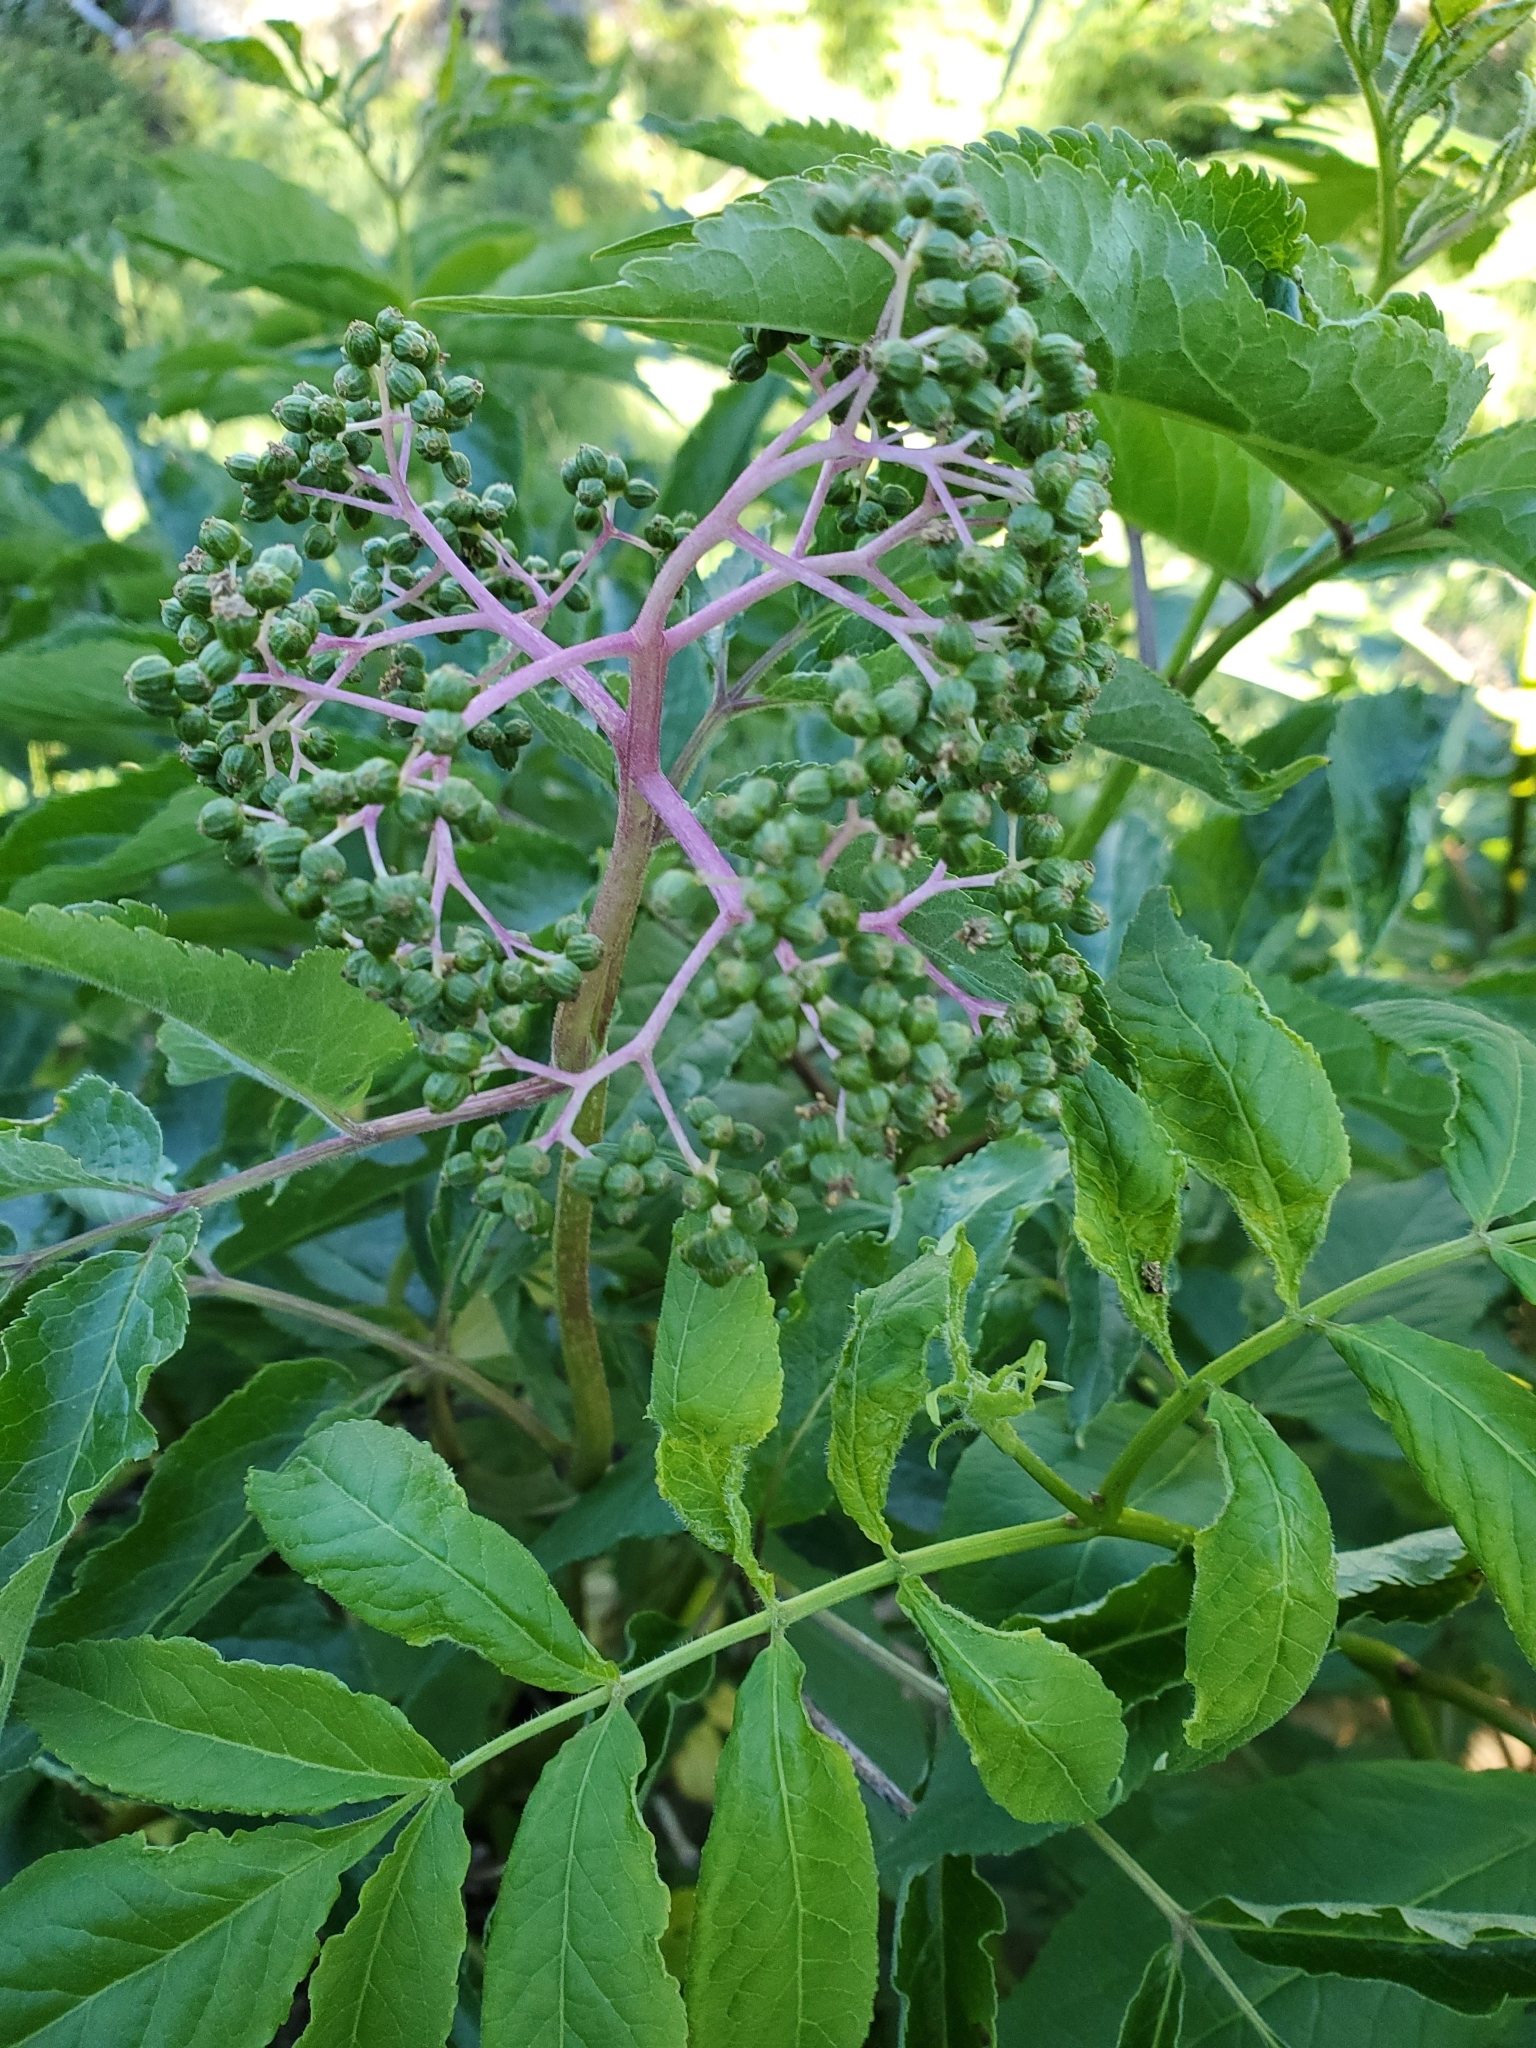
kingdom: Plantae
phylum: Tracheophyta
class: Magnoliopsida
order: Dipsacales
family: Viburnaceae
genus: Sambucus
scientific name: Sambucus racemosa
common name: Red-berried elder
